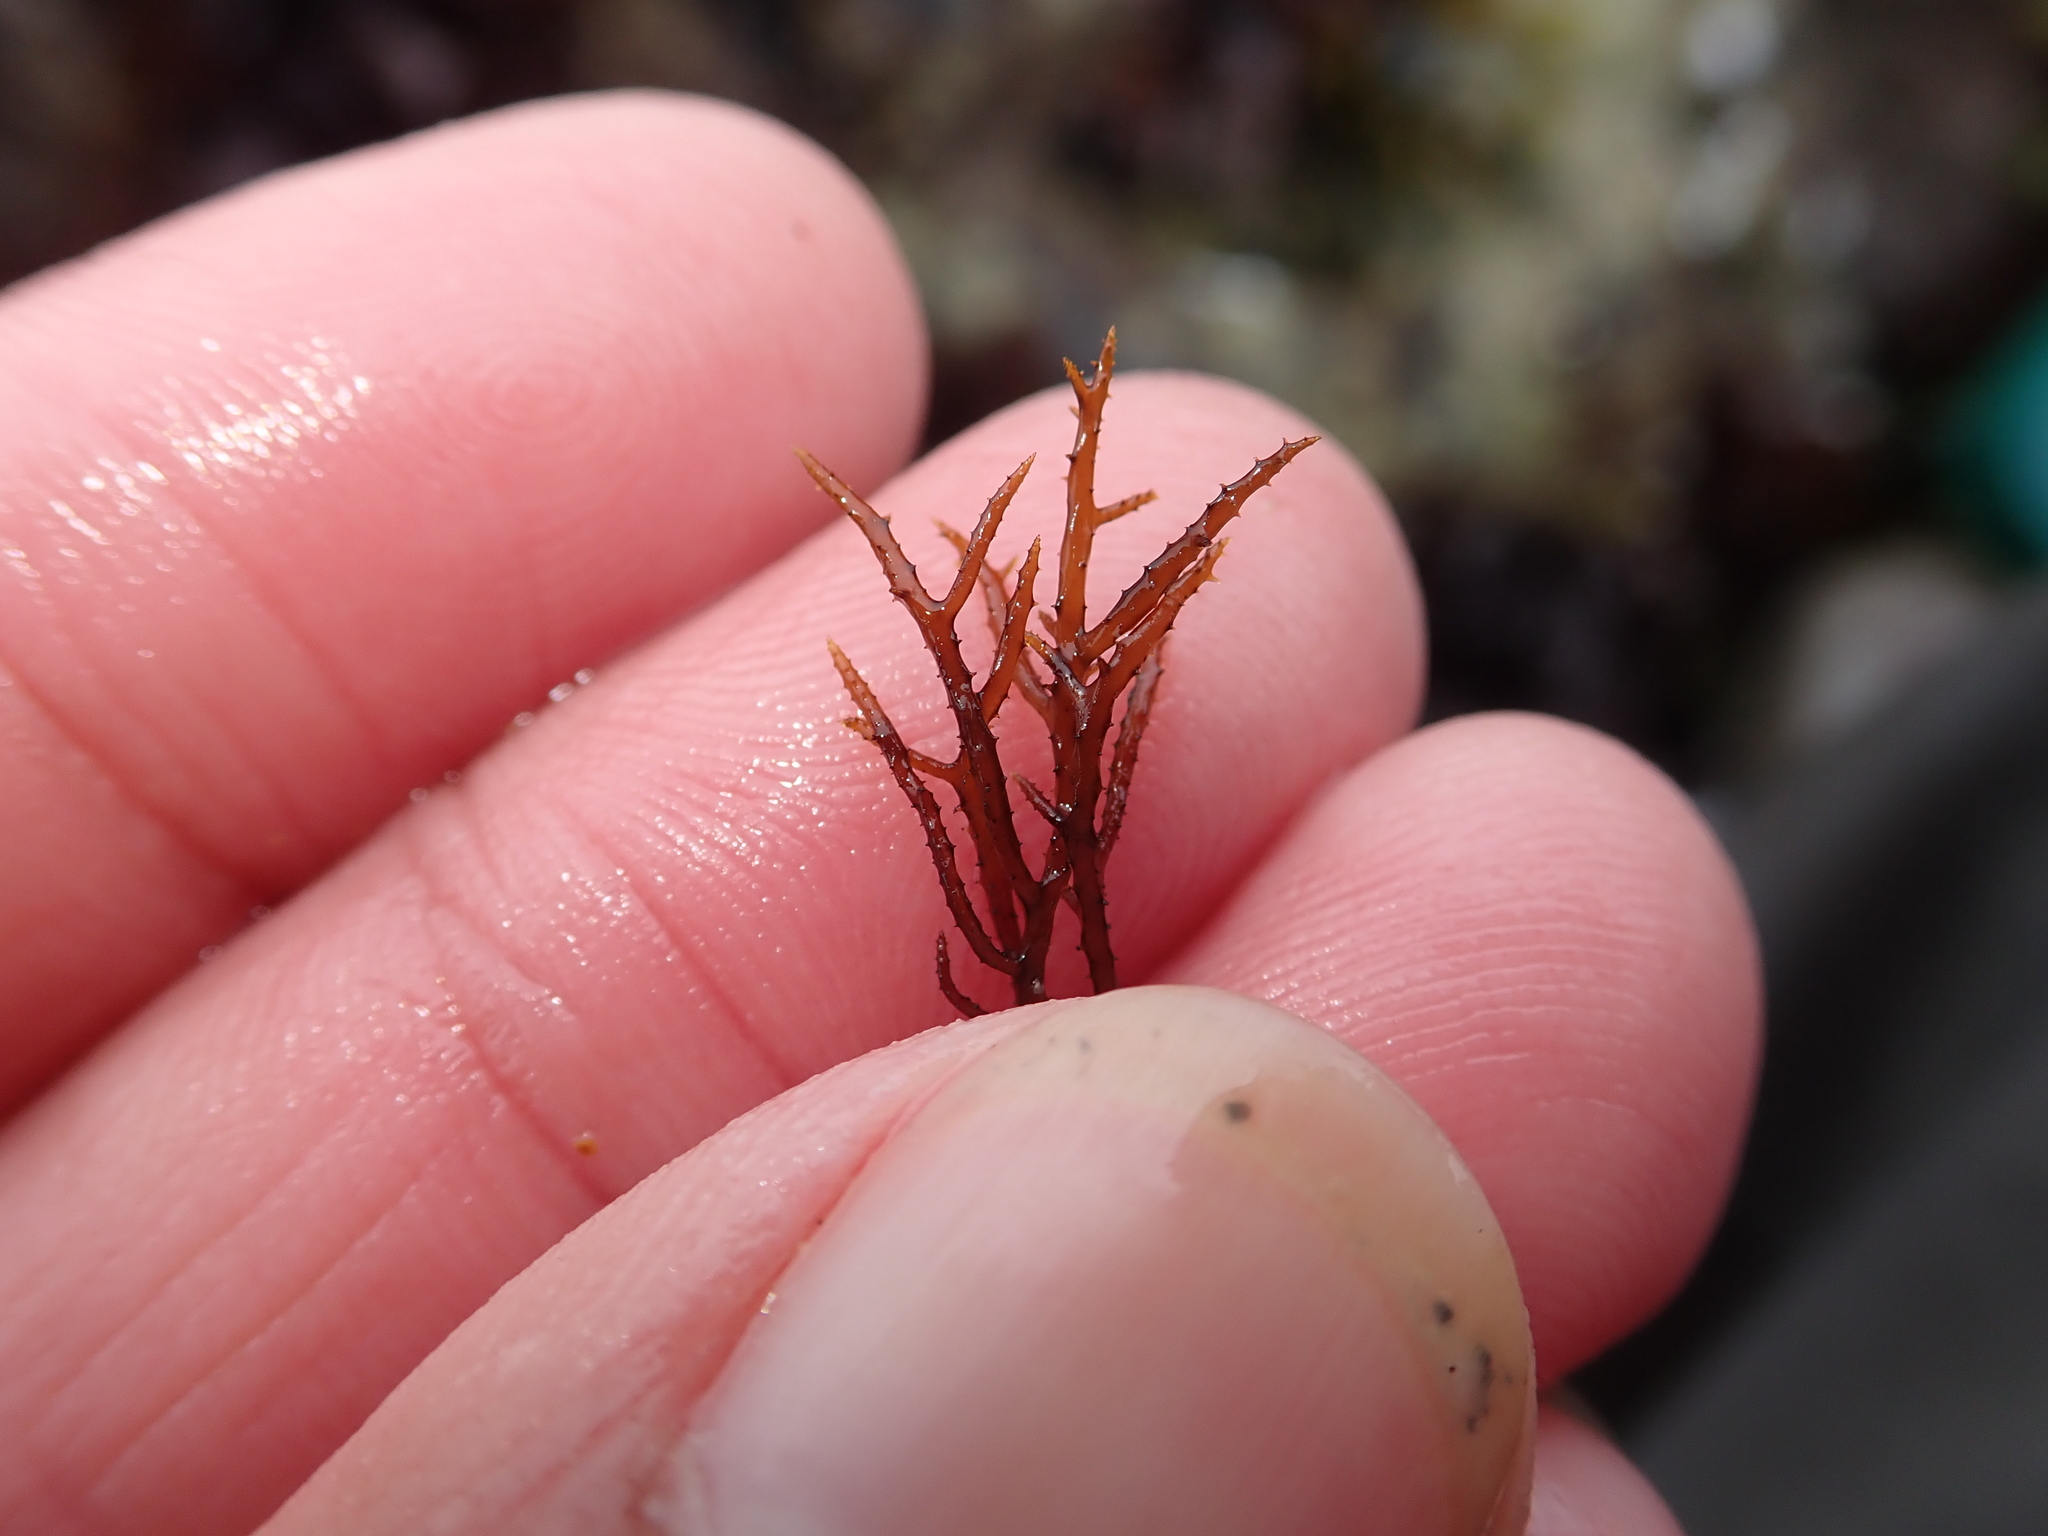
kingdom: Plantae
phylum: Rhodophyta
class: Florideophyceae
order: Gigartinales
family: Endocladiaceae
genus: Endocladia
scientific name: Endocladia muricata
